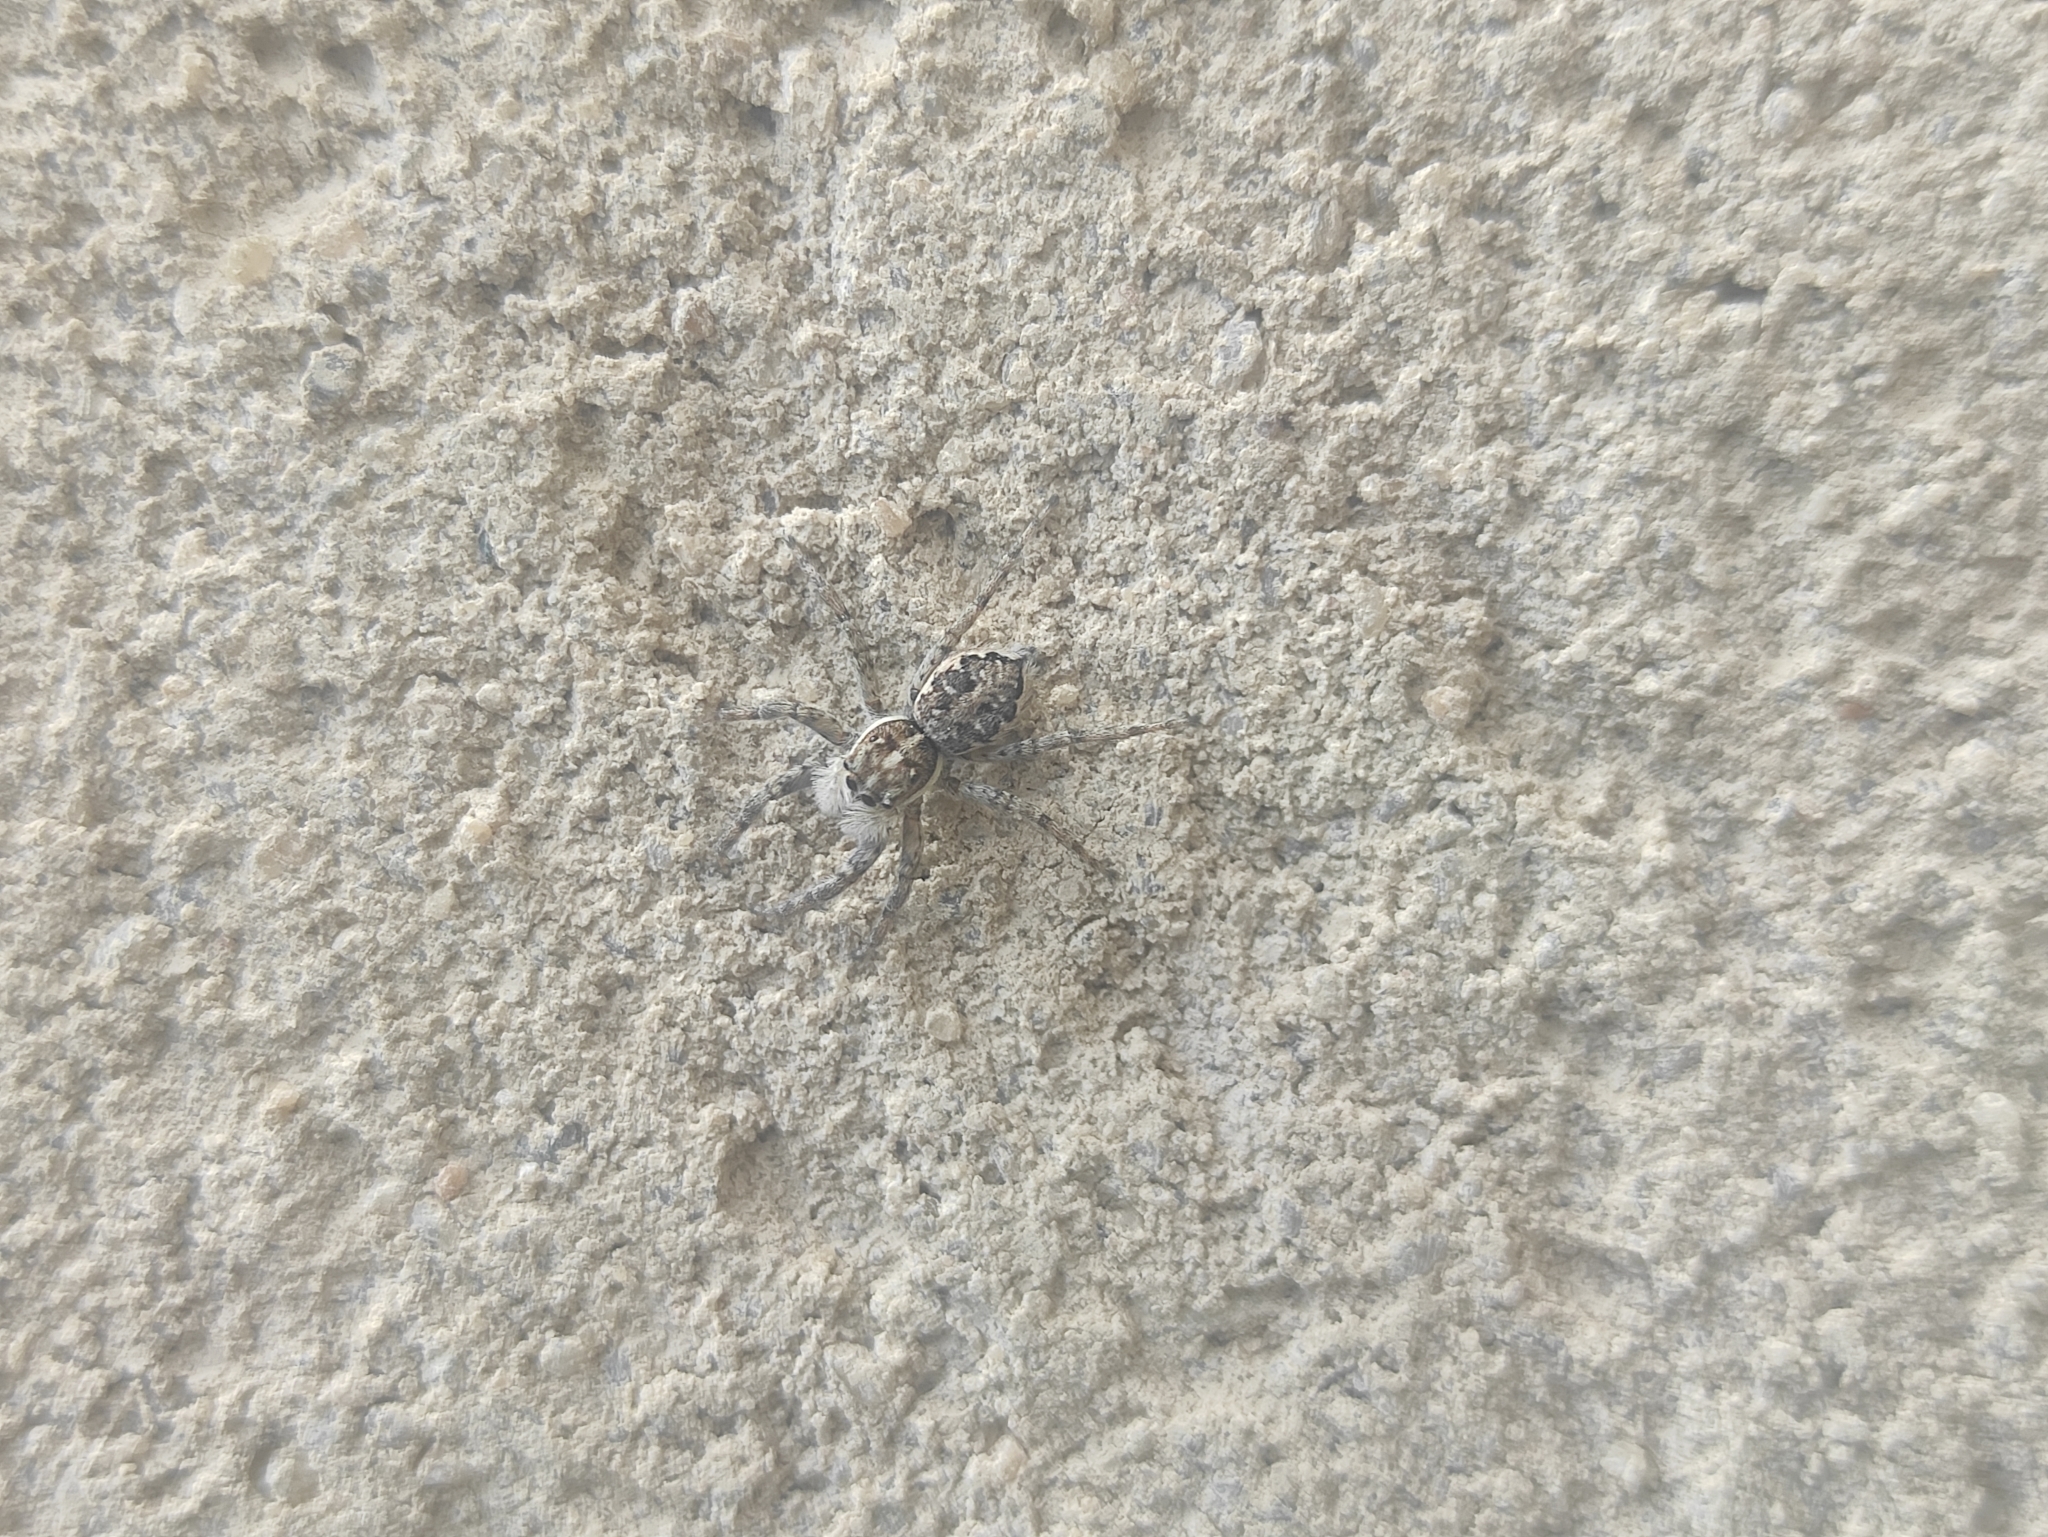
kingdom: Animalia
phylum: Arthropoda
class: Arachnida
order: Araneae
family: Salticidae
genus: Menemerus
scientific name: Menemerus semilimbatus
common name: Jumping spider
